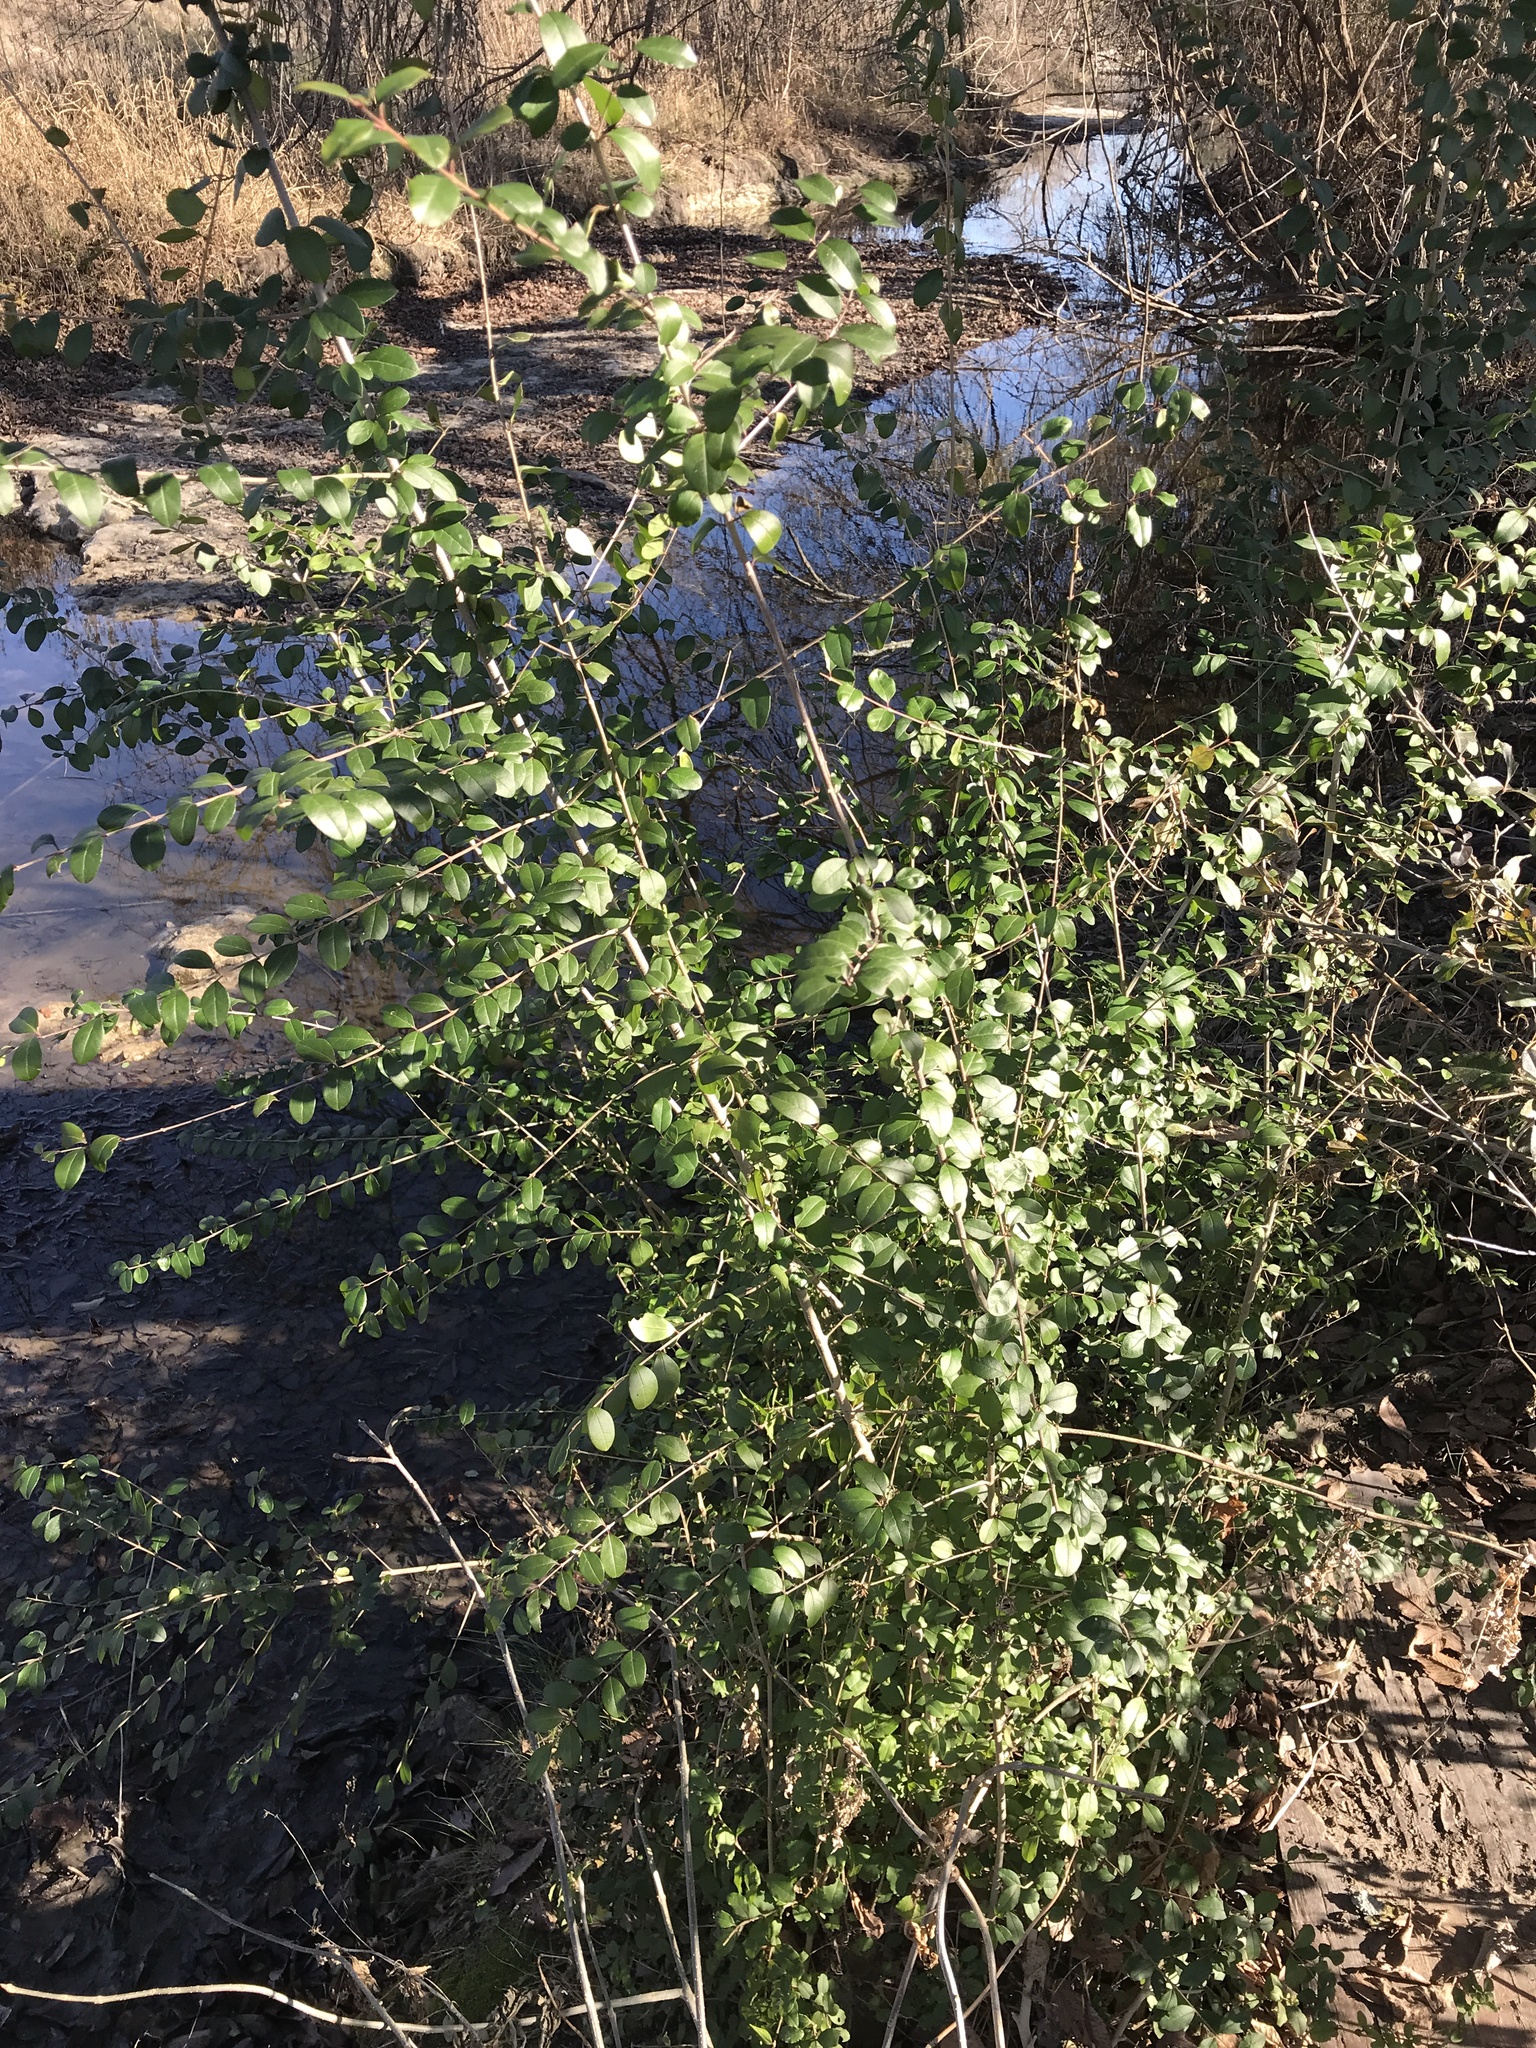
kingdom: Plantae
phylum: Tracheophyta
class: Magnoliopsida
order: Lamiales
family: Oleaceae
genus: Ligustrum
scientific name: Ligustrum sinense
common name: Chinese privet
